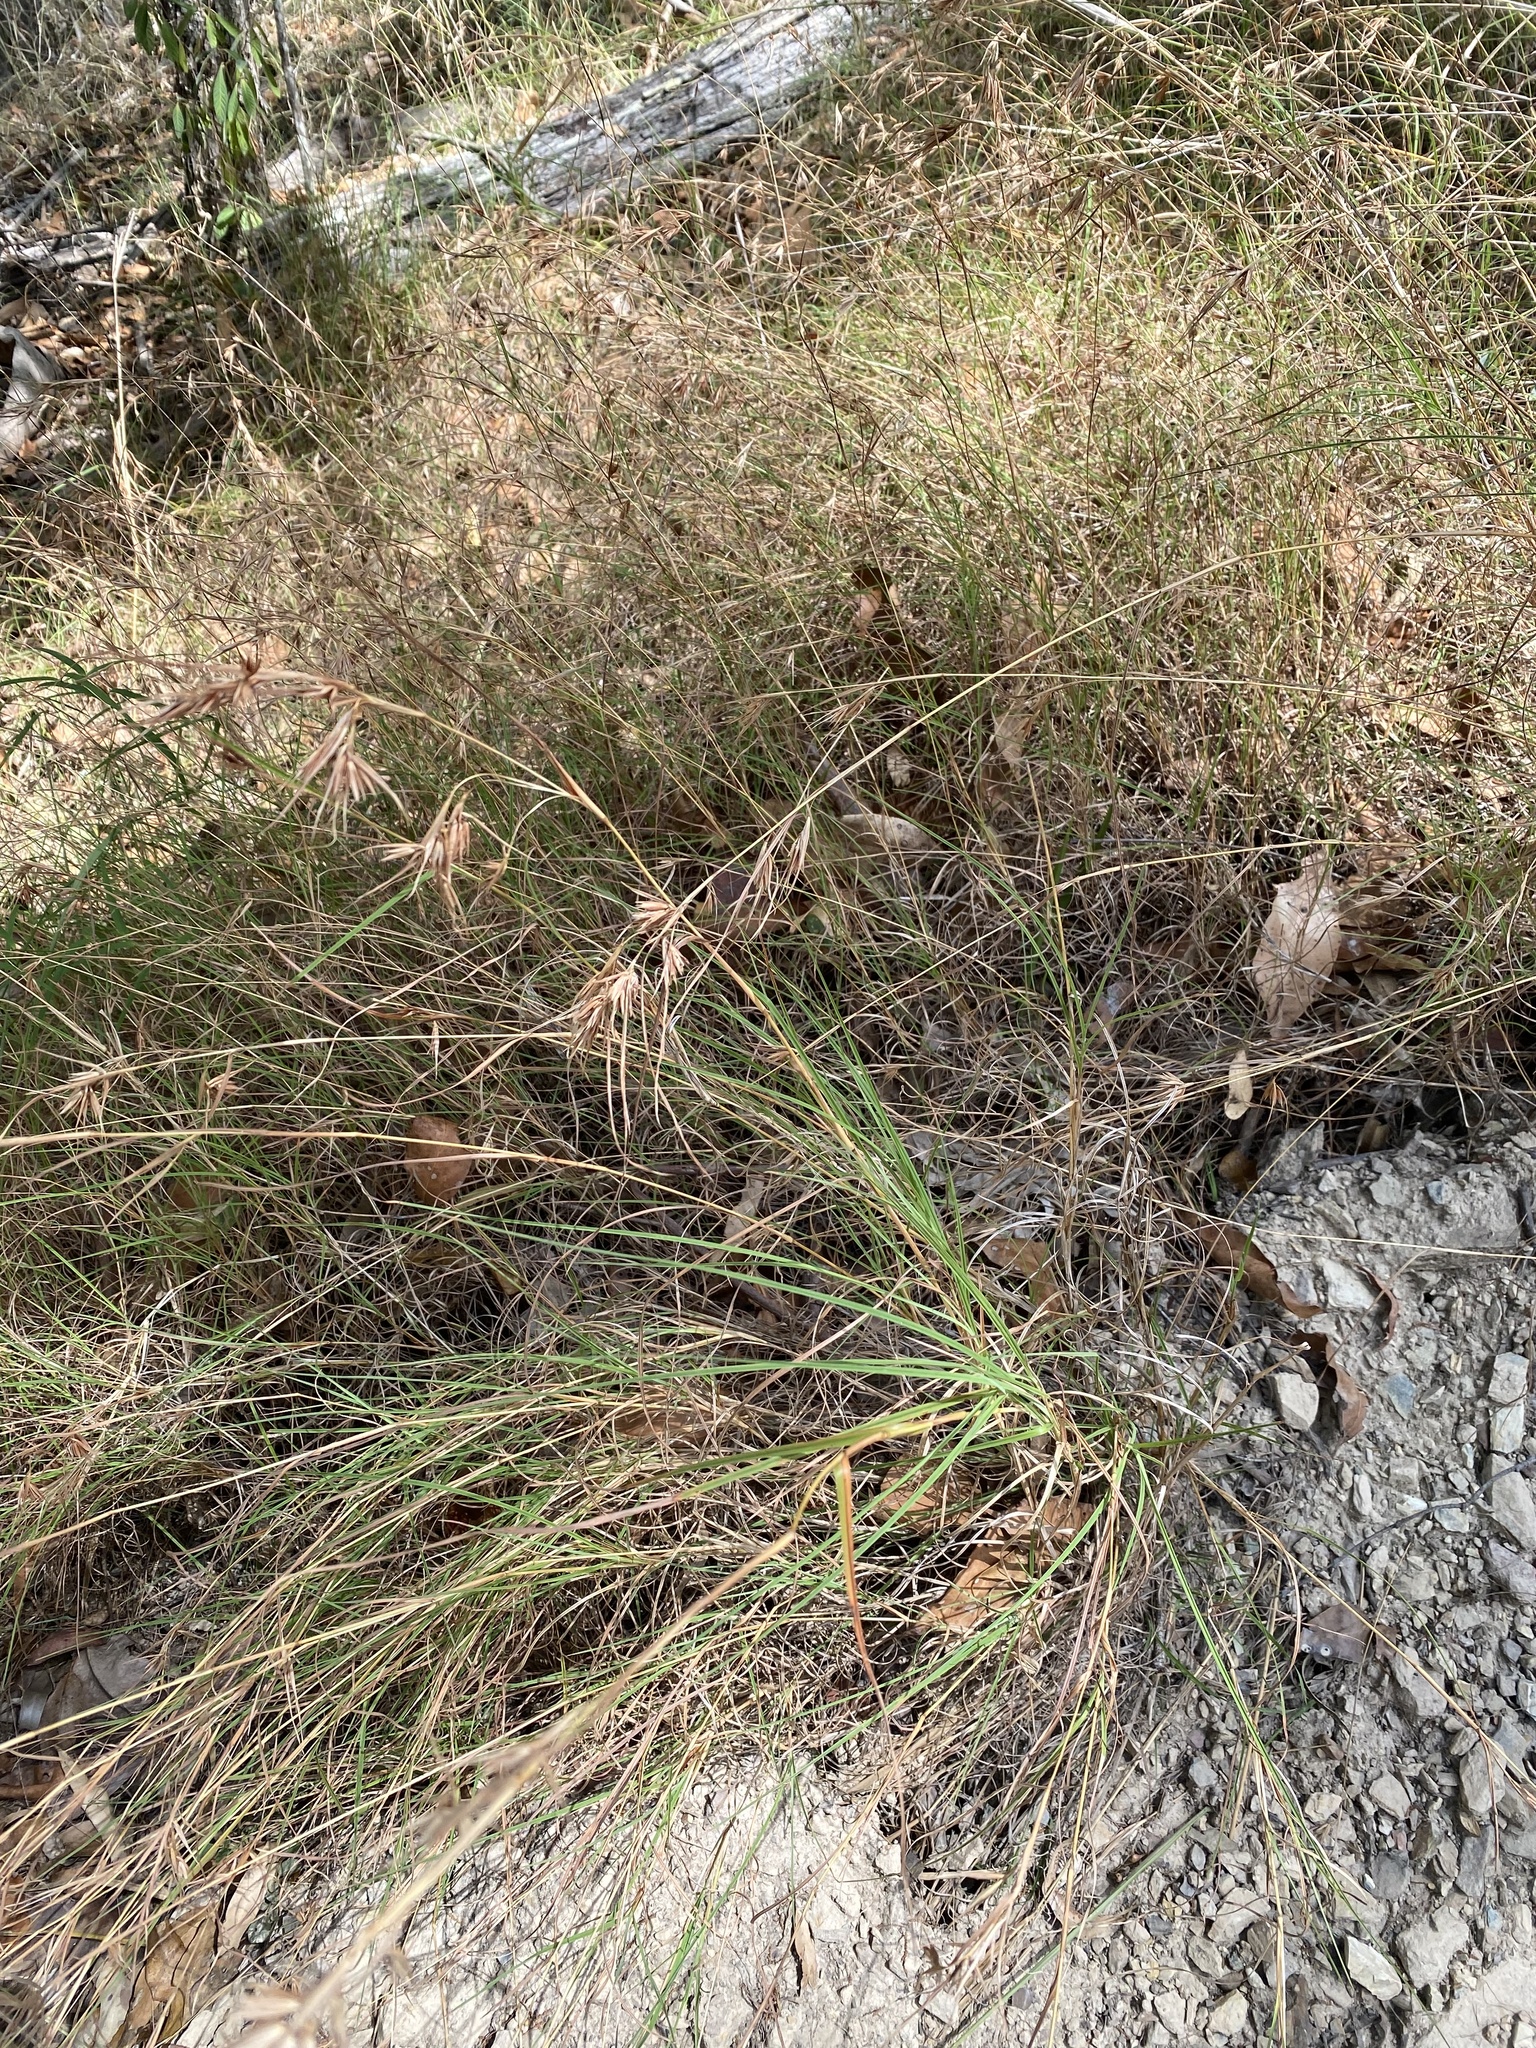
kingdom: Plantae
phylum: Tracheophyta
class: Liliopsida
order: Poales
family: Poaceae
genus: Themeda
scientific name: Themeda triandra
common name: Kangaroo grass
